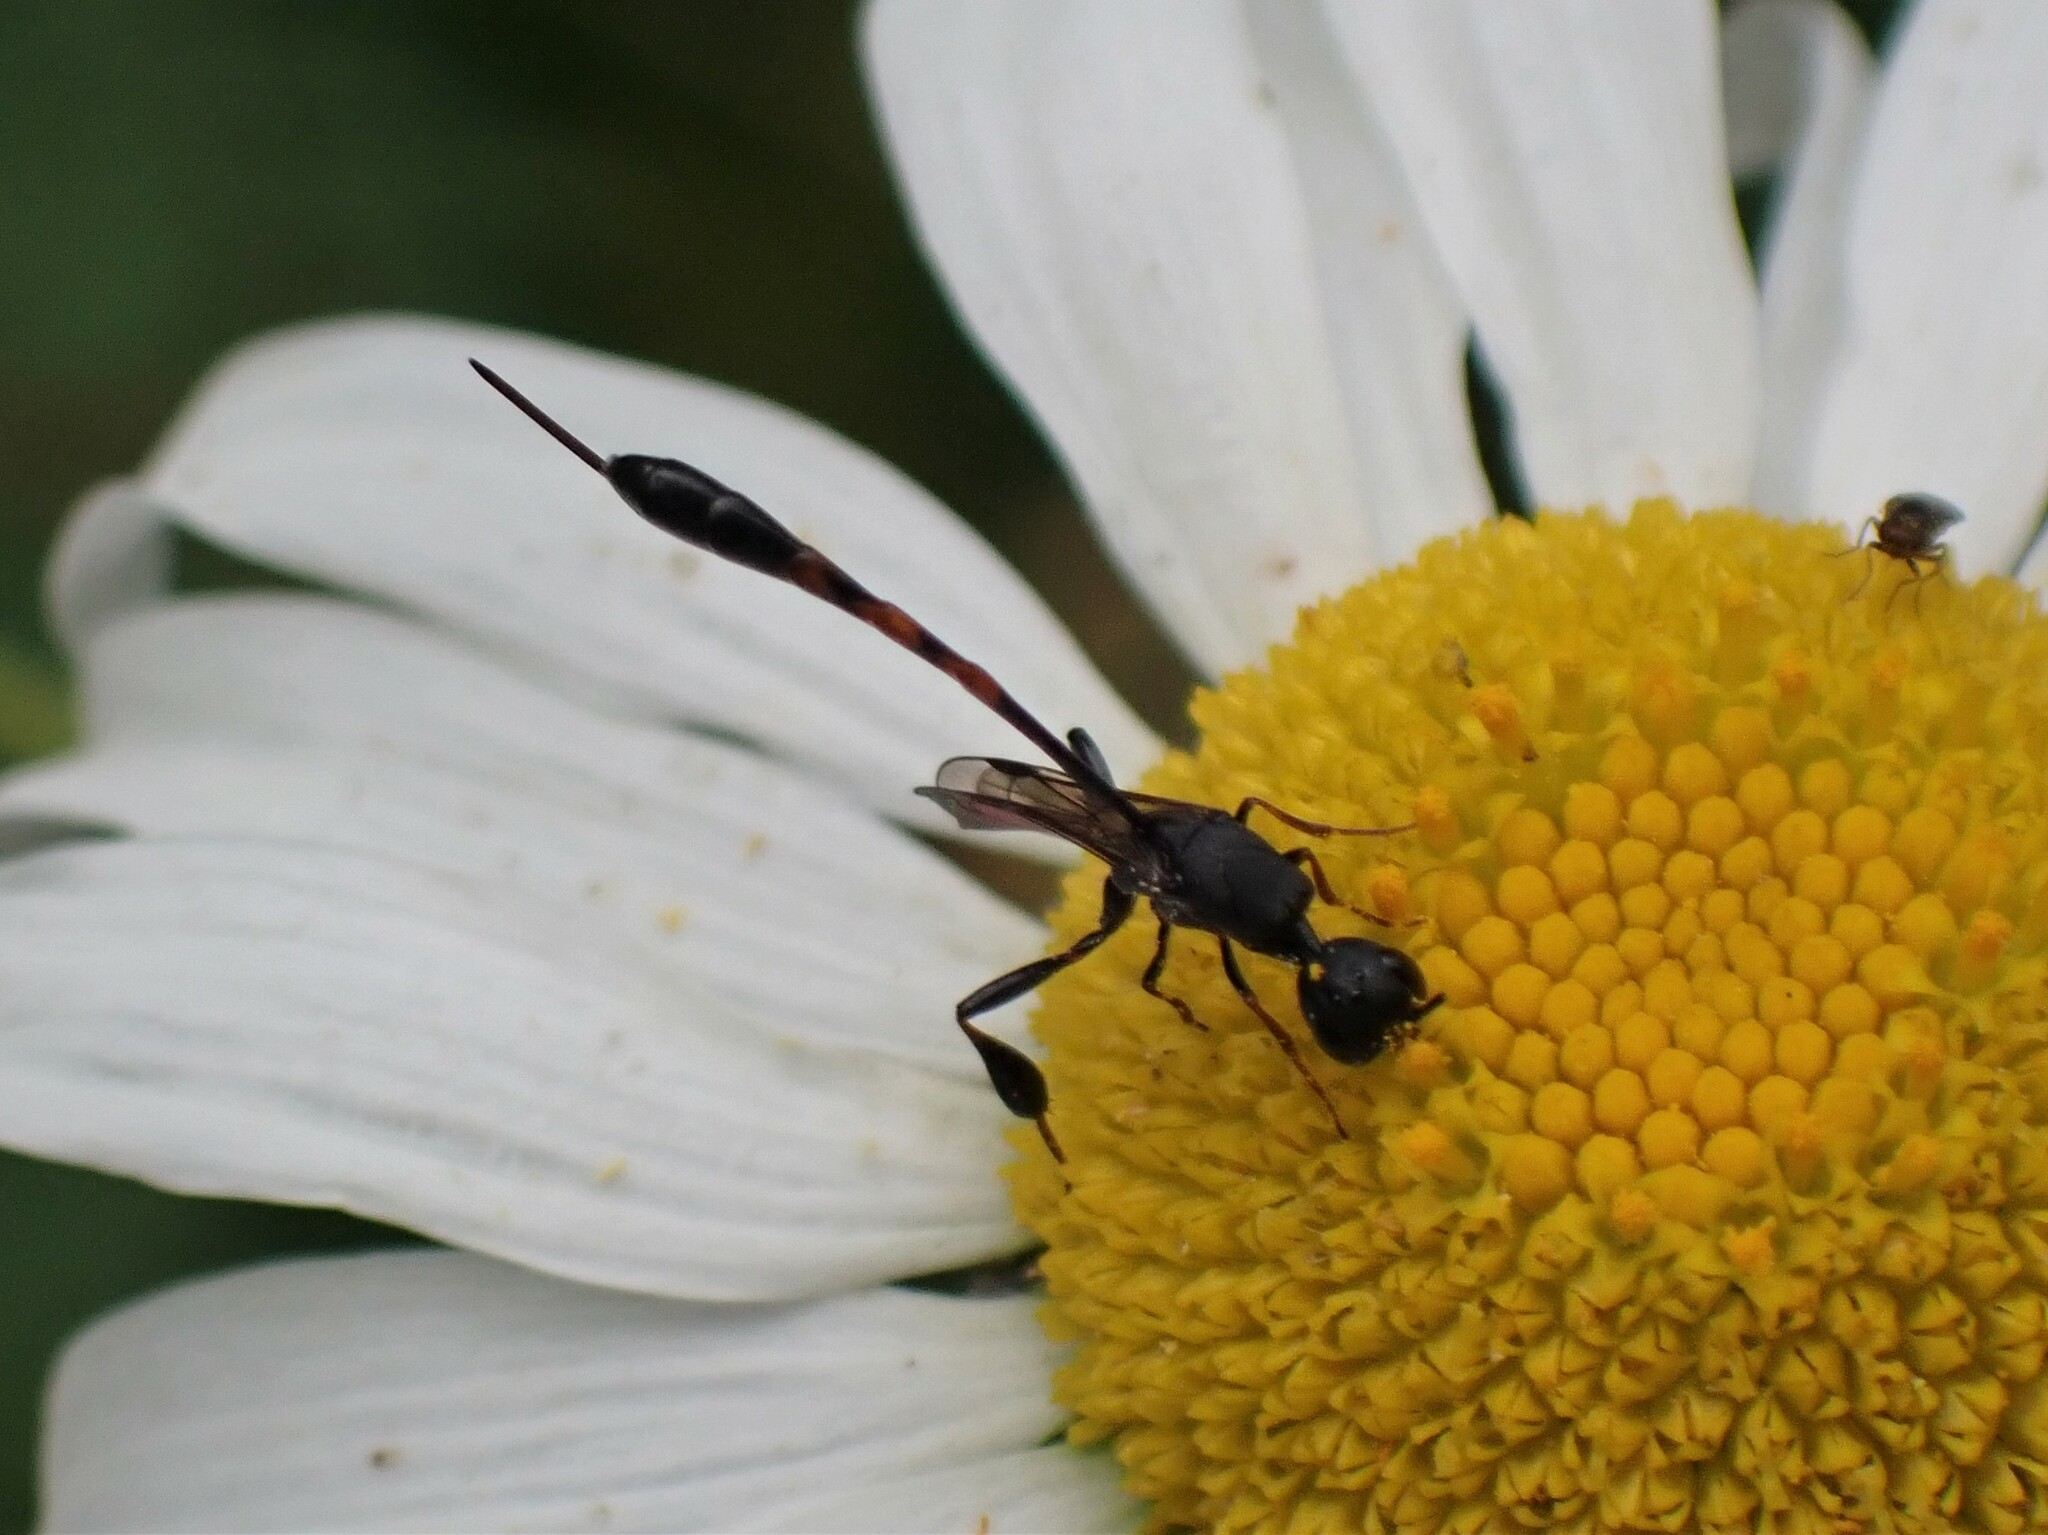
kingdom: Animalia
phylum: Arthropoda
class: Insecta
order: Hymenoptera
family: Gasteruptiidae
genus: Gasteruption
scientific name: Gasteruption
